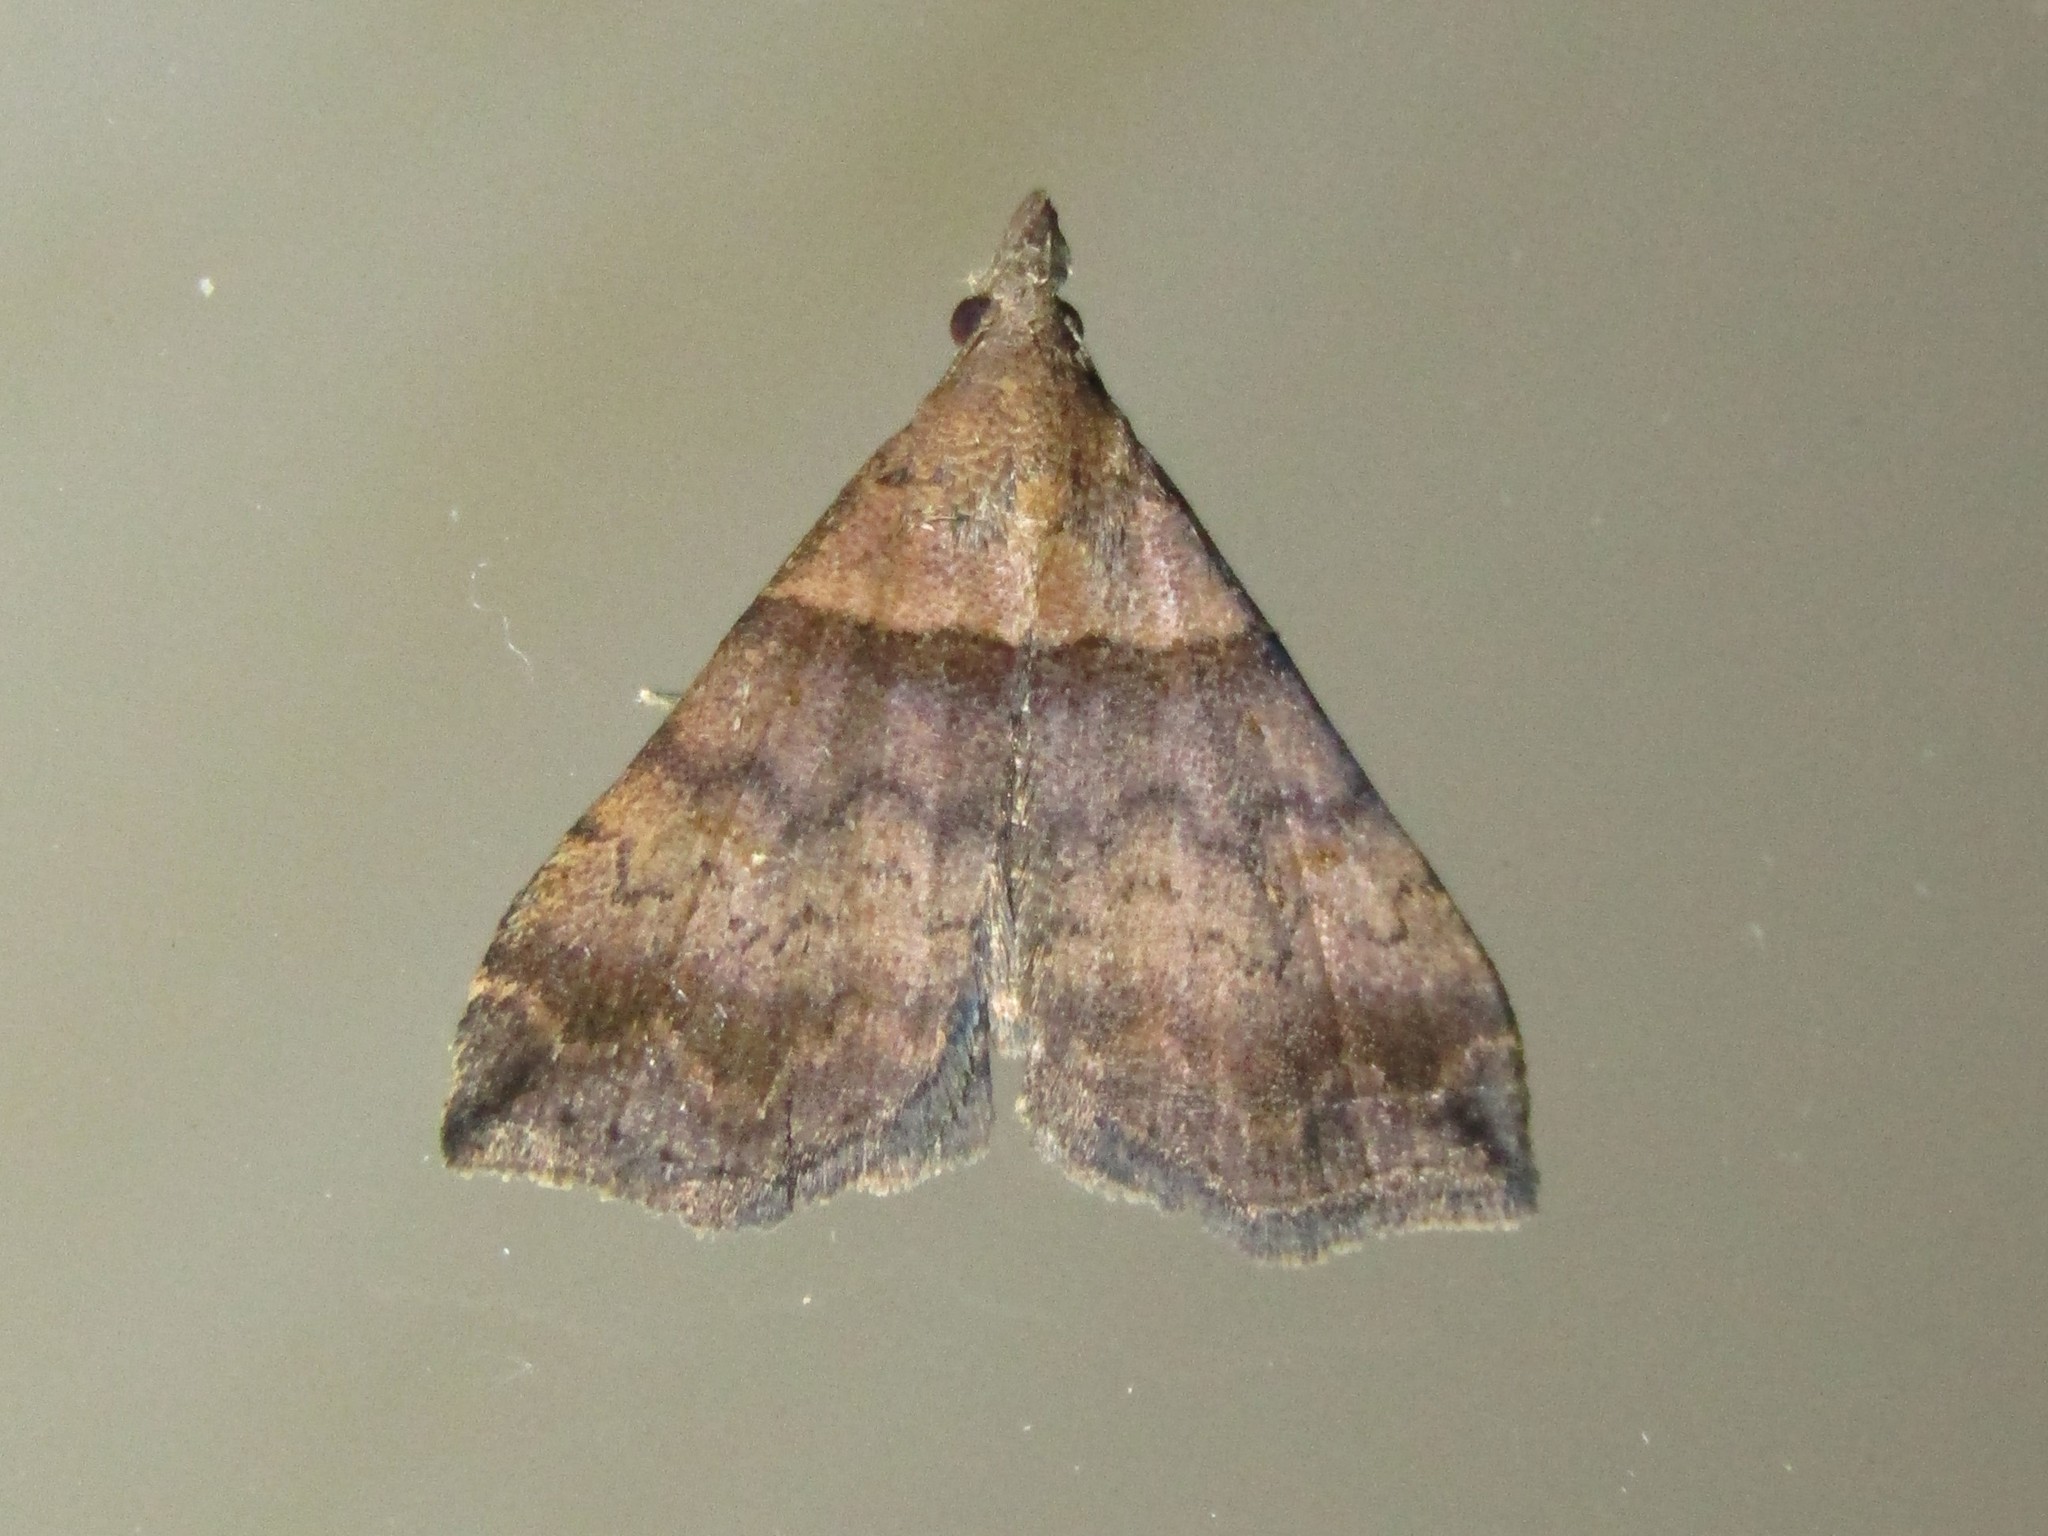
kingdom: Animalia
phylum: Arthropoda
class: Insecta
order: Lepidoptera
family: Erebidae
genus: Lascoria
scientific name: Lascoria ambigualis
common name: Ambiguous moth
